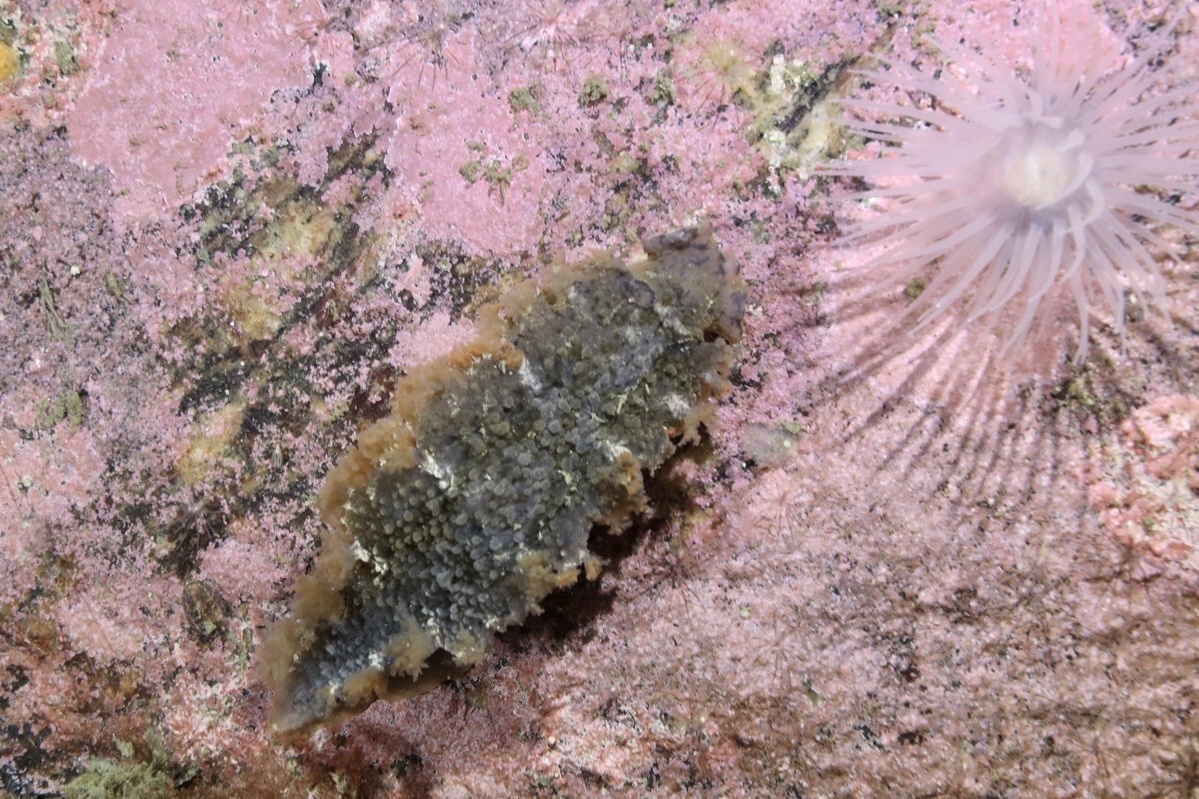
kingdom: Animalia
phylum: Mollusca
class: Gastropoda
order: Nudibranchia
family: Tritoniidae
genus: Tritonia
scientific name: Tritonia hombergii
